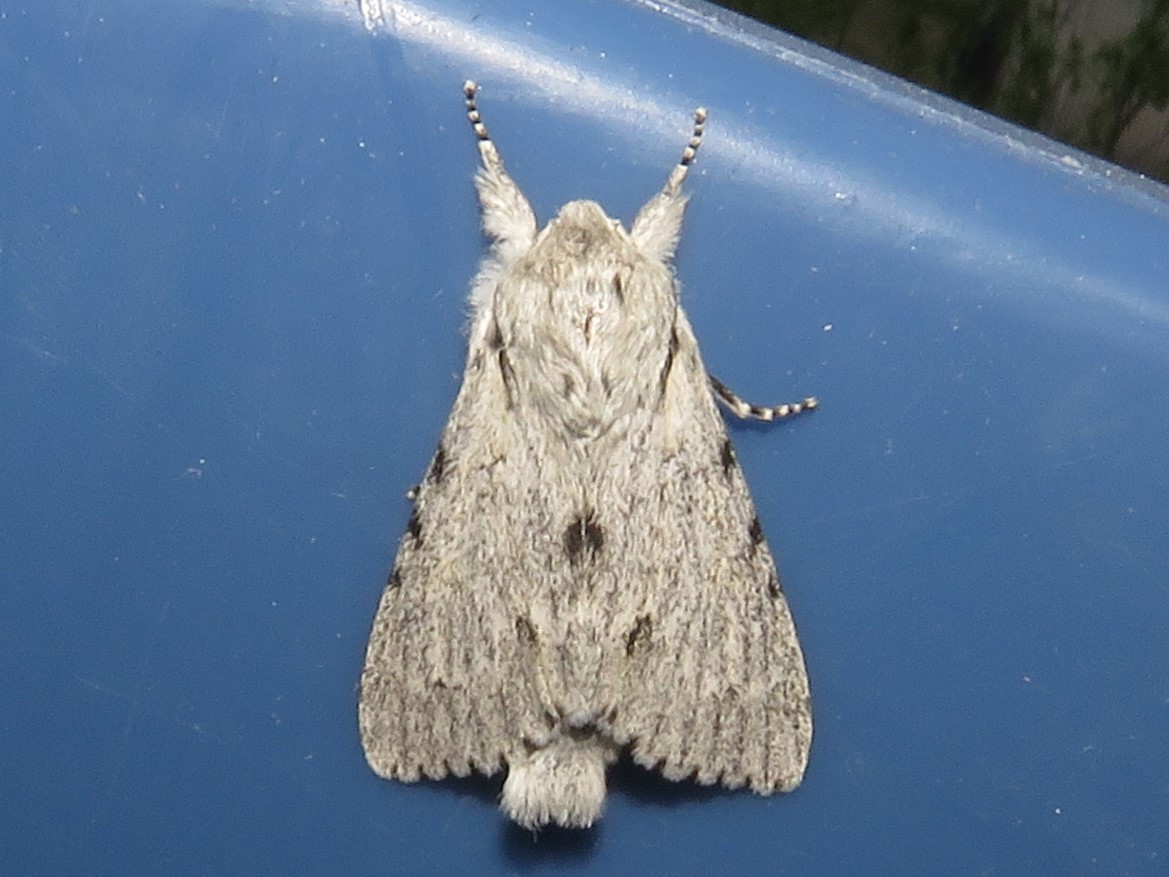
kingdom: Animalia
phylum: Arthropoda
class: Insecta
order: Lepidoptera
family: Noctuidae
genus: Acronicta
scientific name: Acronicta lepusculina
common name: Cottonwood dagger
